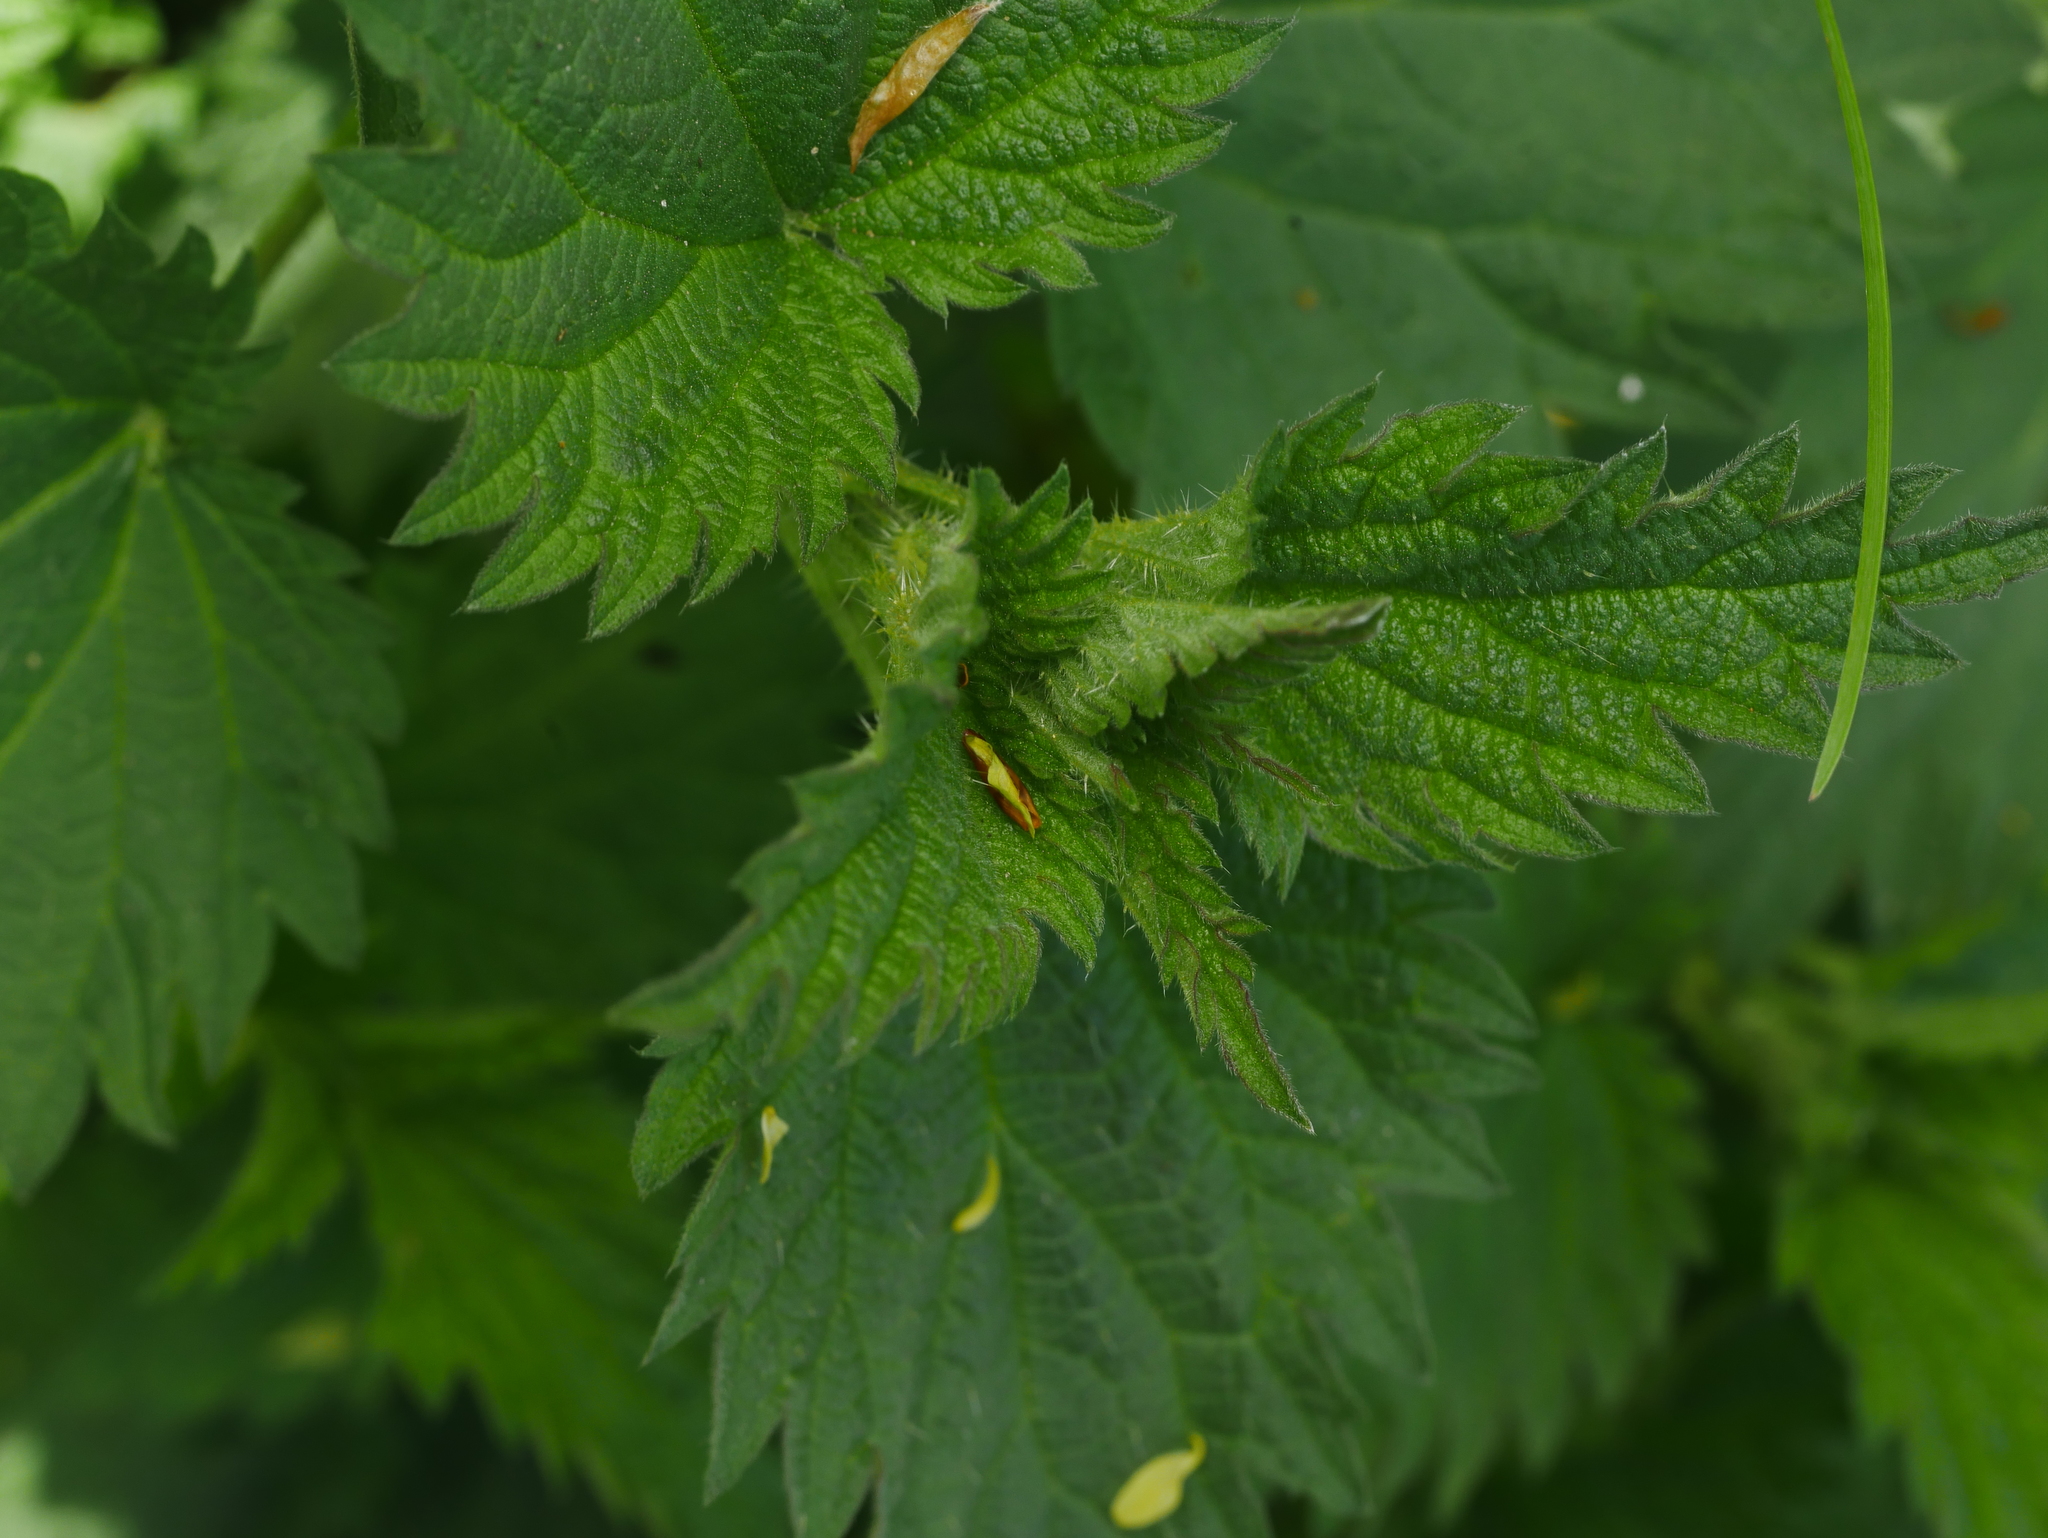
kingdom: Plantae
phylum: Tracheophyta
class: Magnoliopsida
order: Rosales
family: Urticaceae
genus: Urtica
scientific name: Urtica dioica
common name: Common nettle
